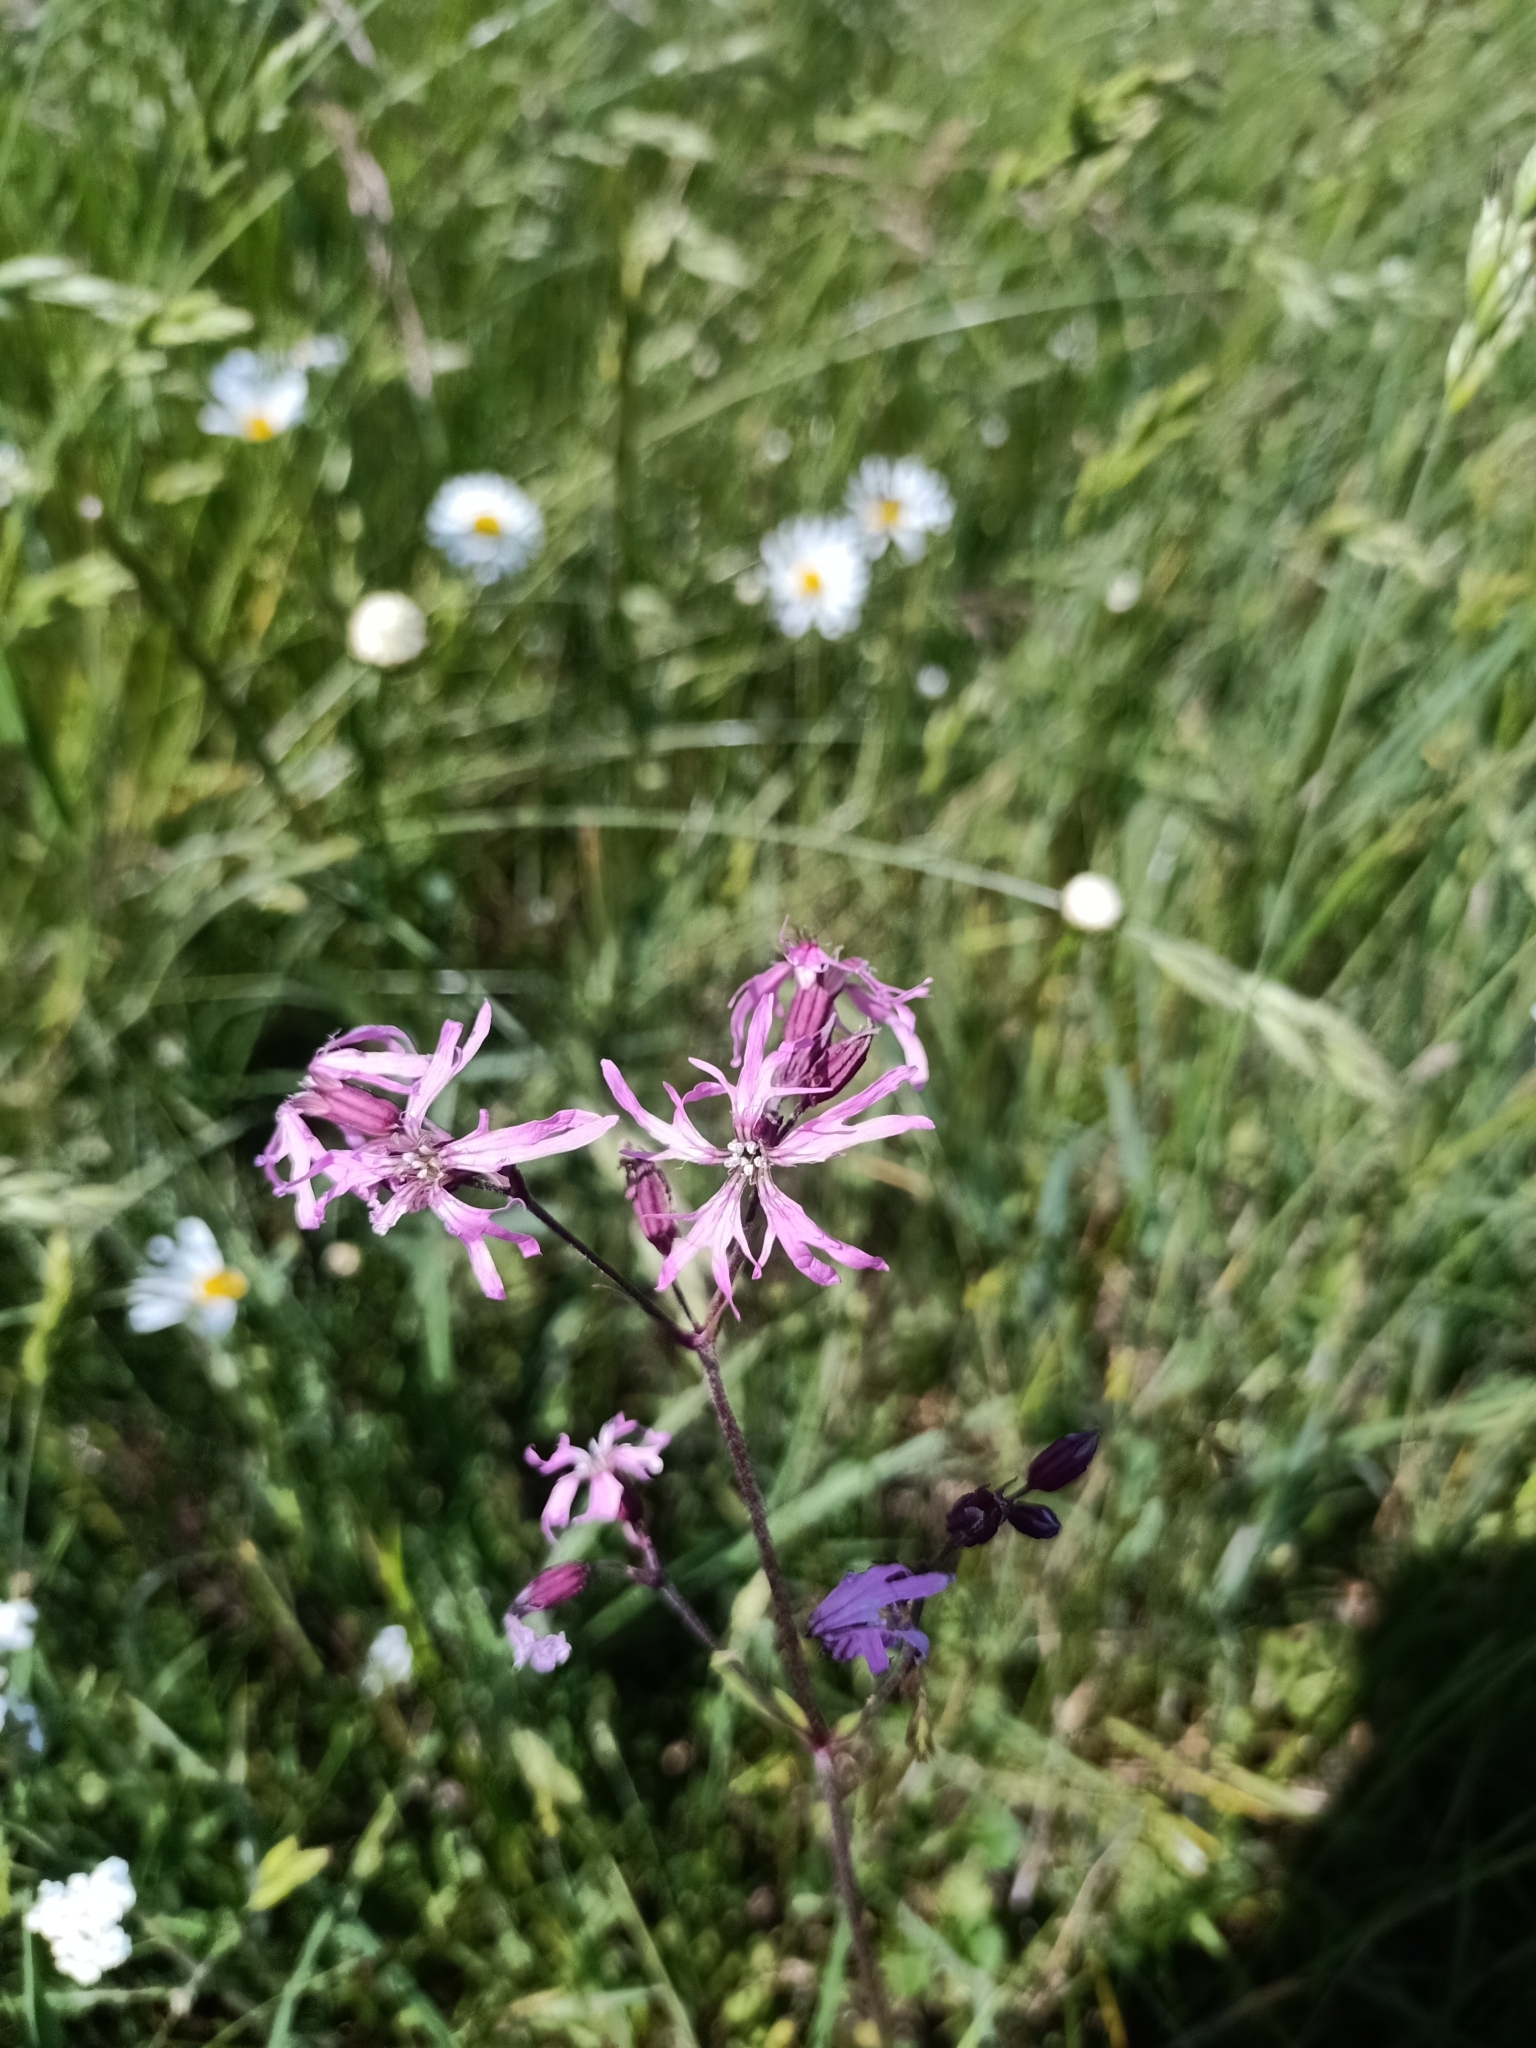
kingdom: Plantae
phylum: Tracheophyta
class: Magnoliopsida
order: Caryophyllales
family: Caryophyllaceae
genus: Silene
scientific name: Silene flos-cuculi
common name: Ragged-robin
